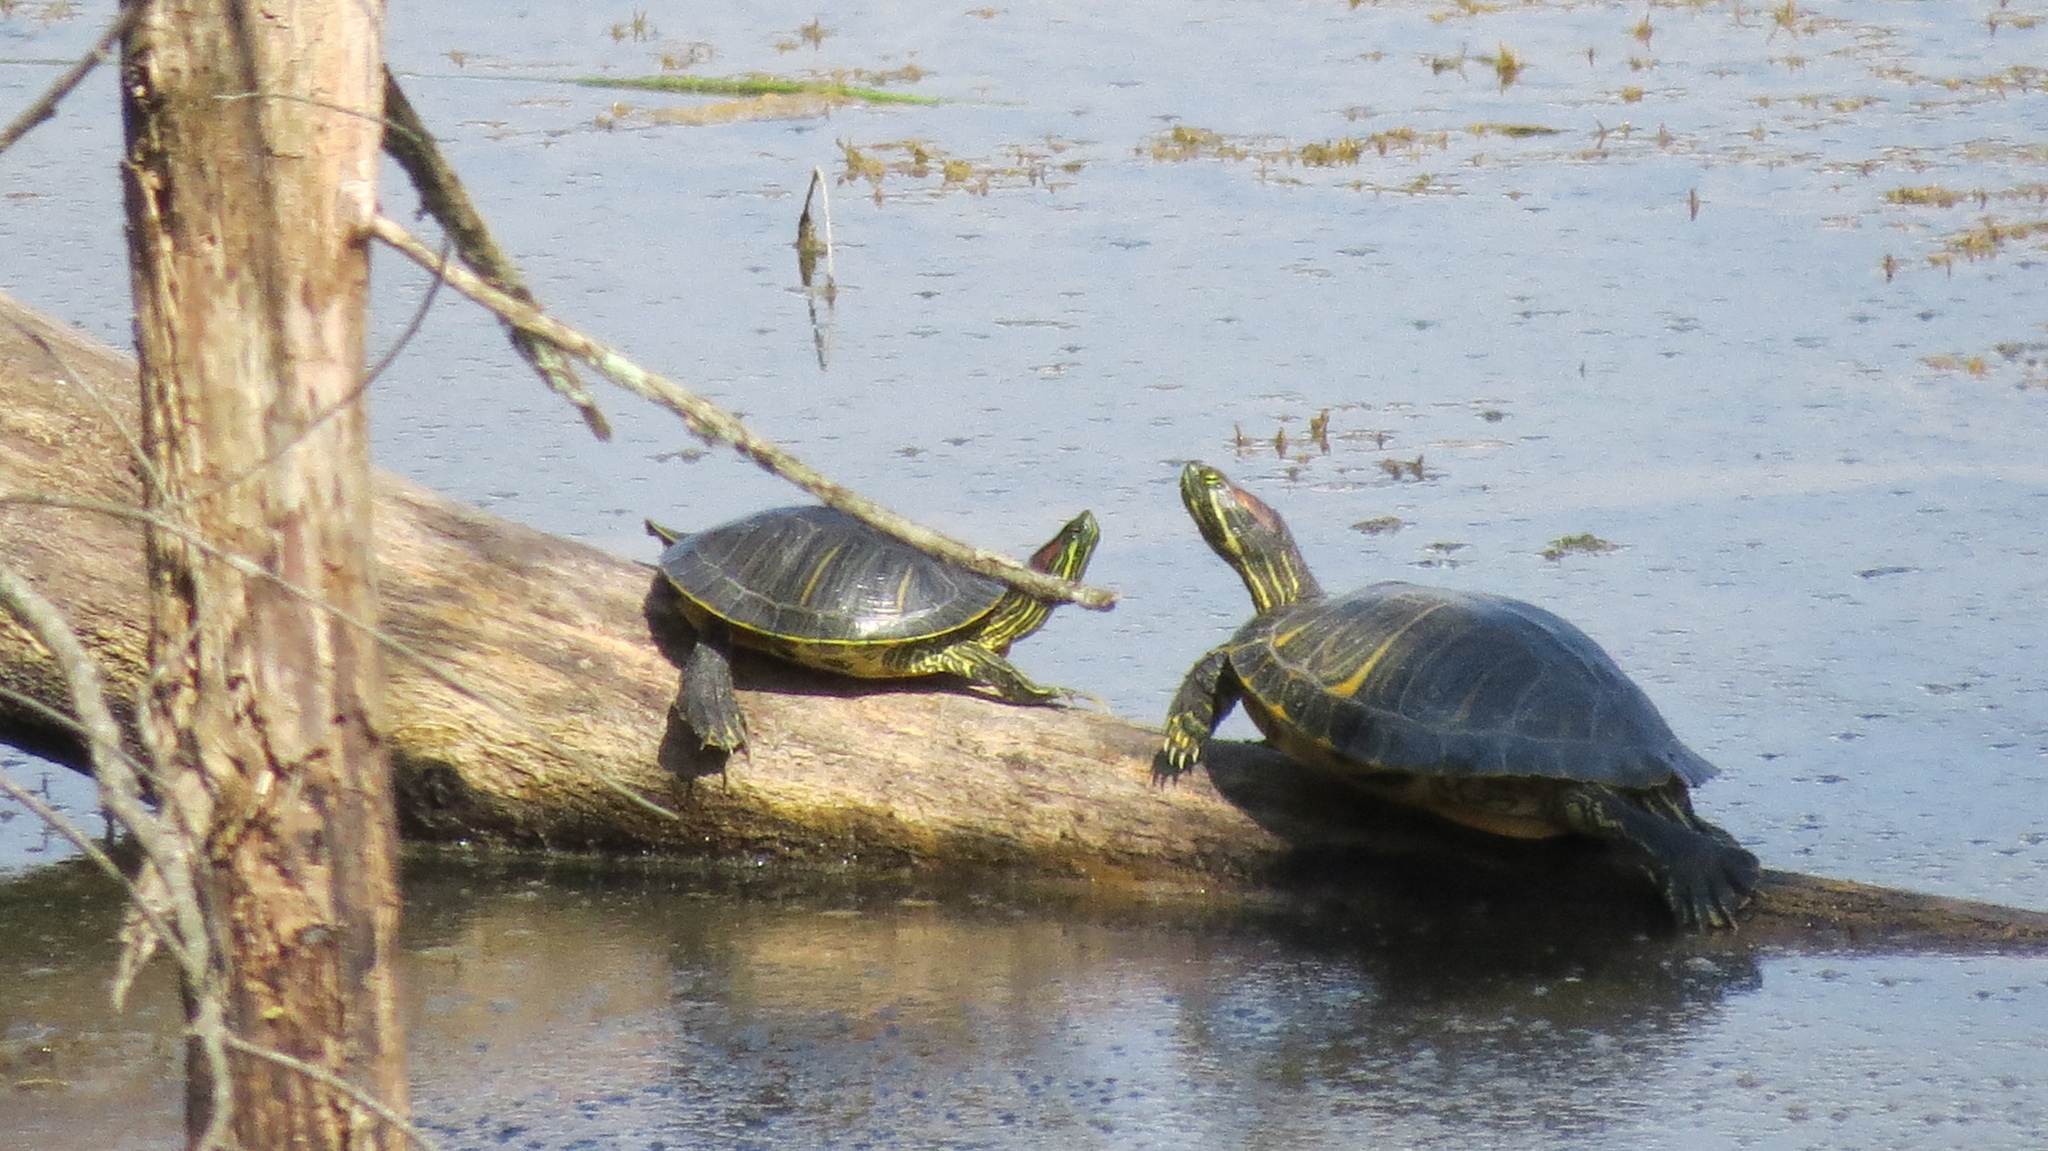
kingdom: Animalia
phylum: Chordata
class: Testudines
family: Emydidae
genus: Trachemys
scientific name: Trachemys scripta
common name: Slider
